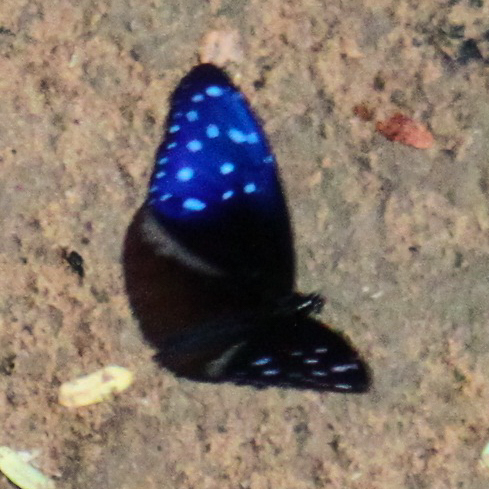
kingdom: Animalia
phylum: Arthropoda
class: Insecta
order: Lepidoptera
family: Nymphalidae
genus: Euploea
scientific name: Euploea mulciber
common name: Striped blue crow butterfly
